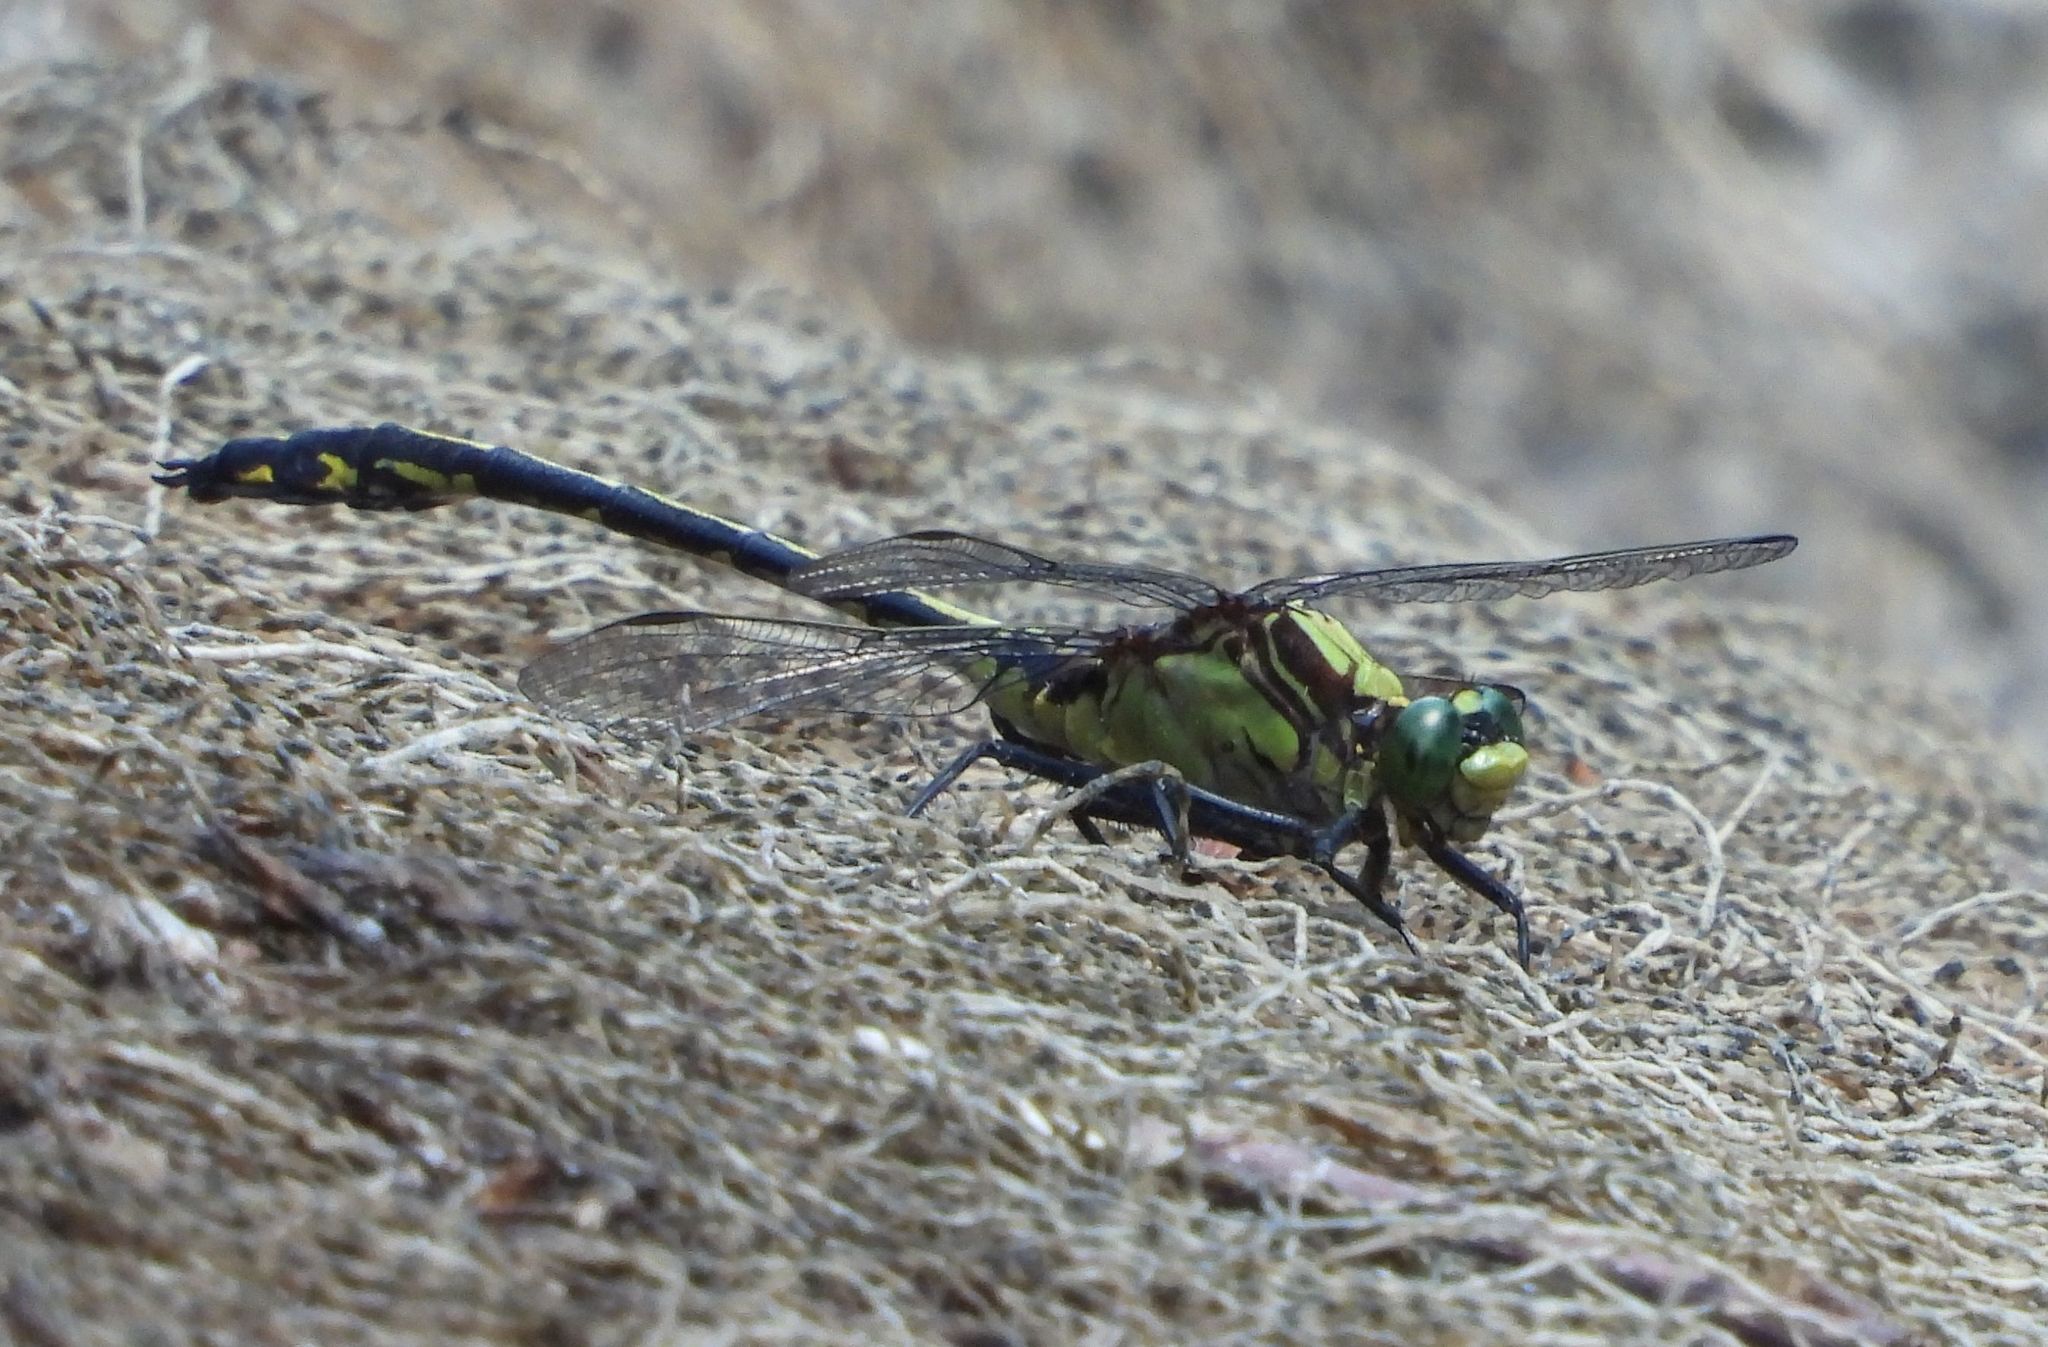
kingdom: Animalia
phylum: Arthropoda
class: Insecta
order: Odonata
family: Gomphidae
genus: Dromogomphus
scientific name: Dromogomphus spinosus
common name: Black-shouldered spinyleg
